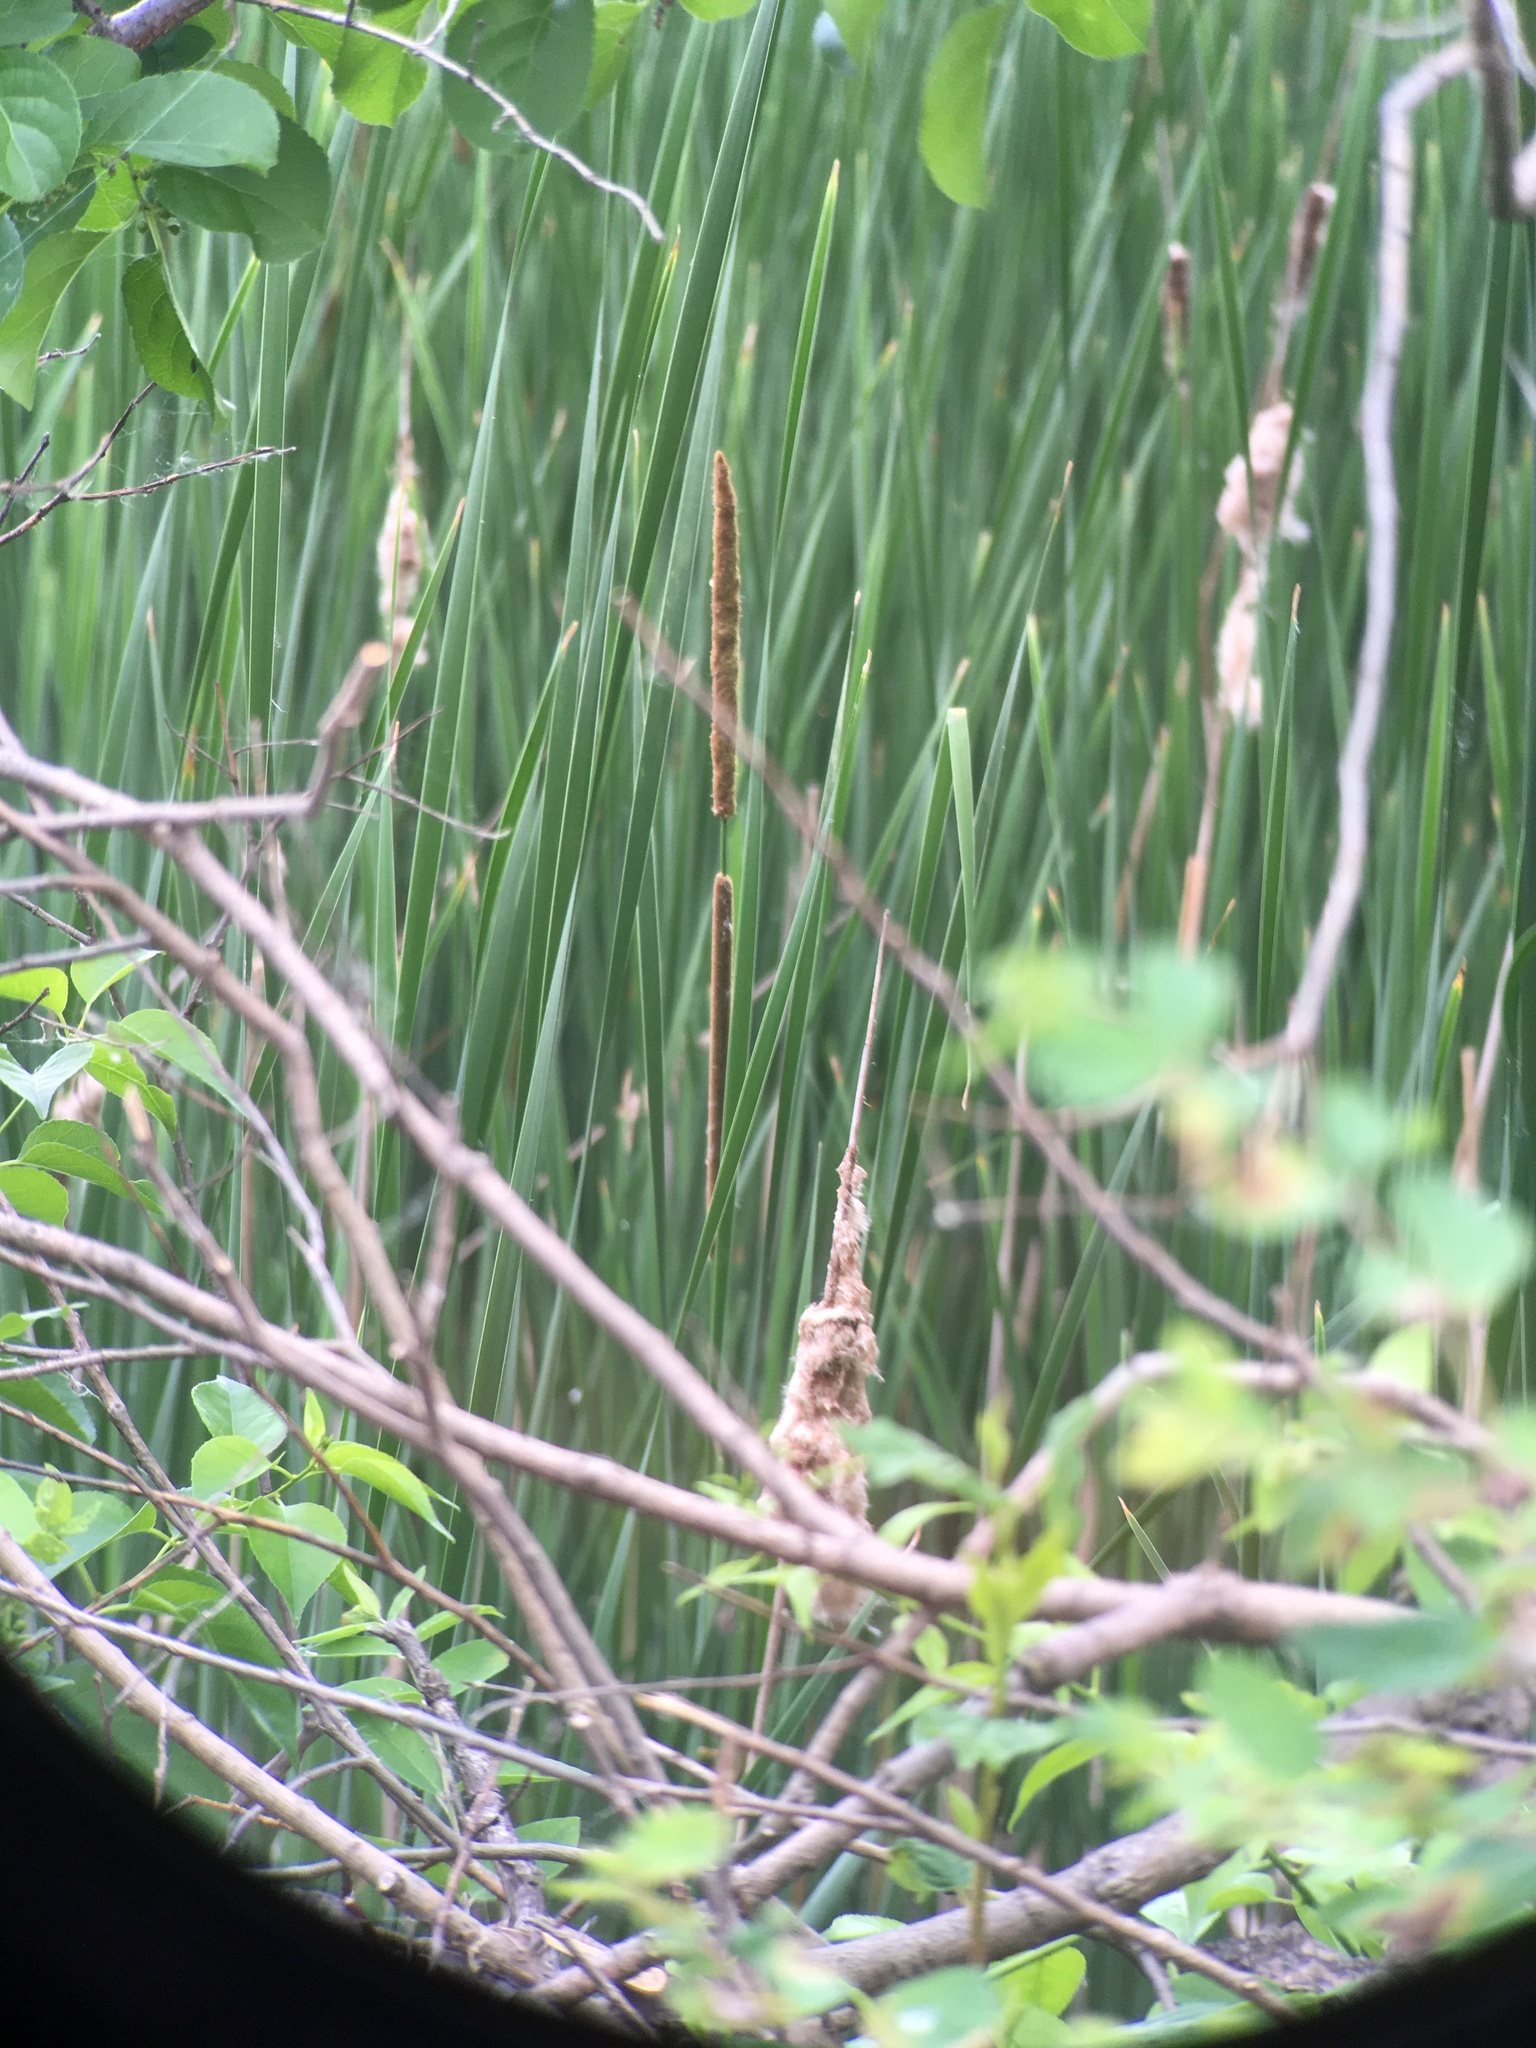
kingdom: Plantae
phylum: Tracheophyta
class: Liliopsida
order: Poales
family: Typhaceae
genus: Typha
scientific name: Typha angustifolia
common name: Lesser bulrush
